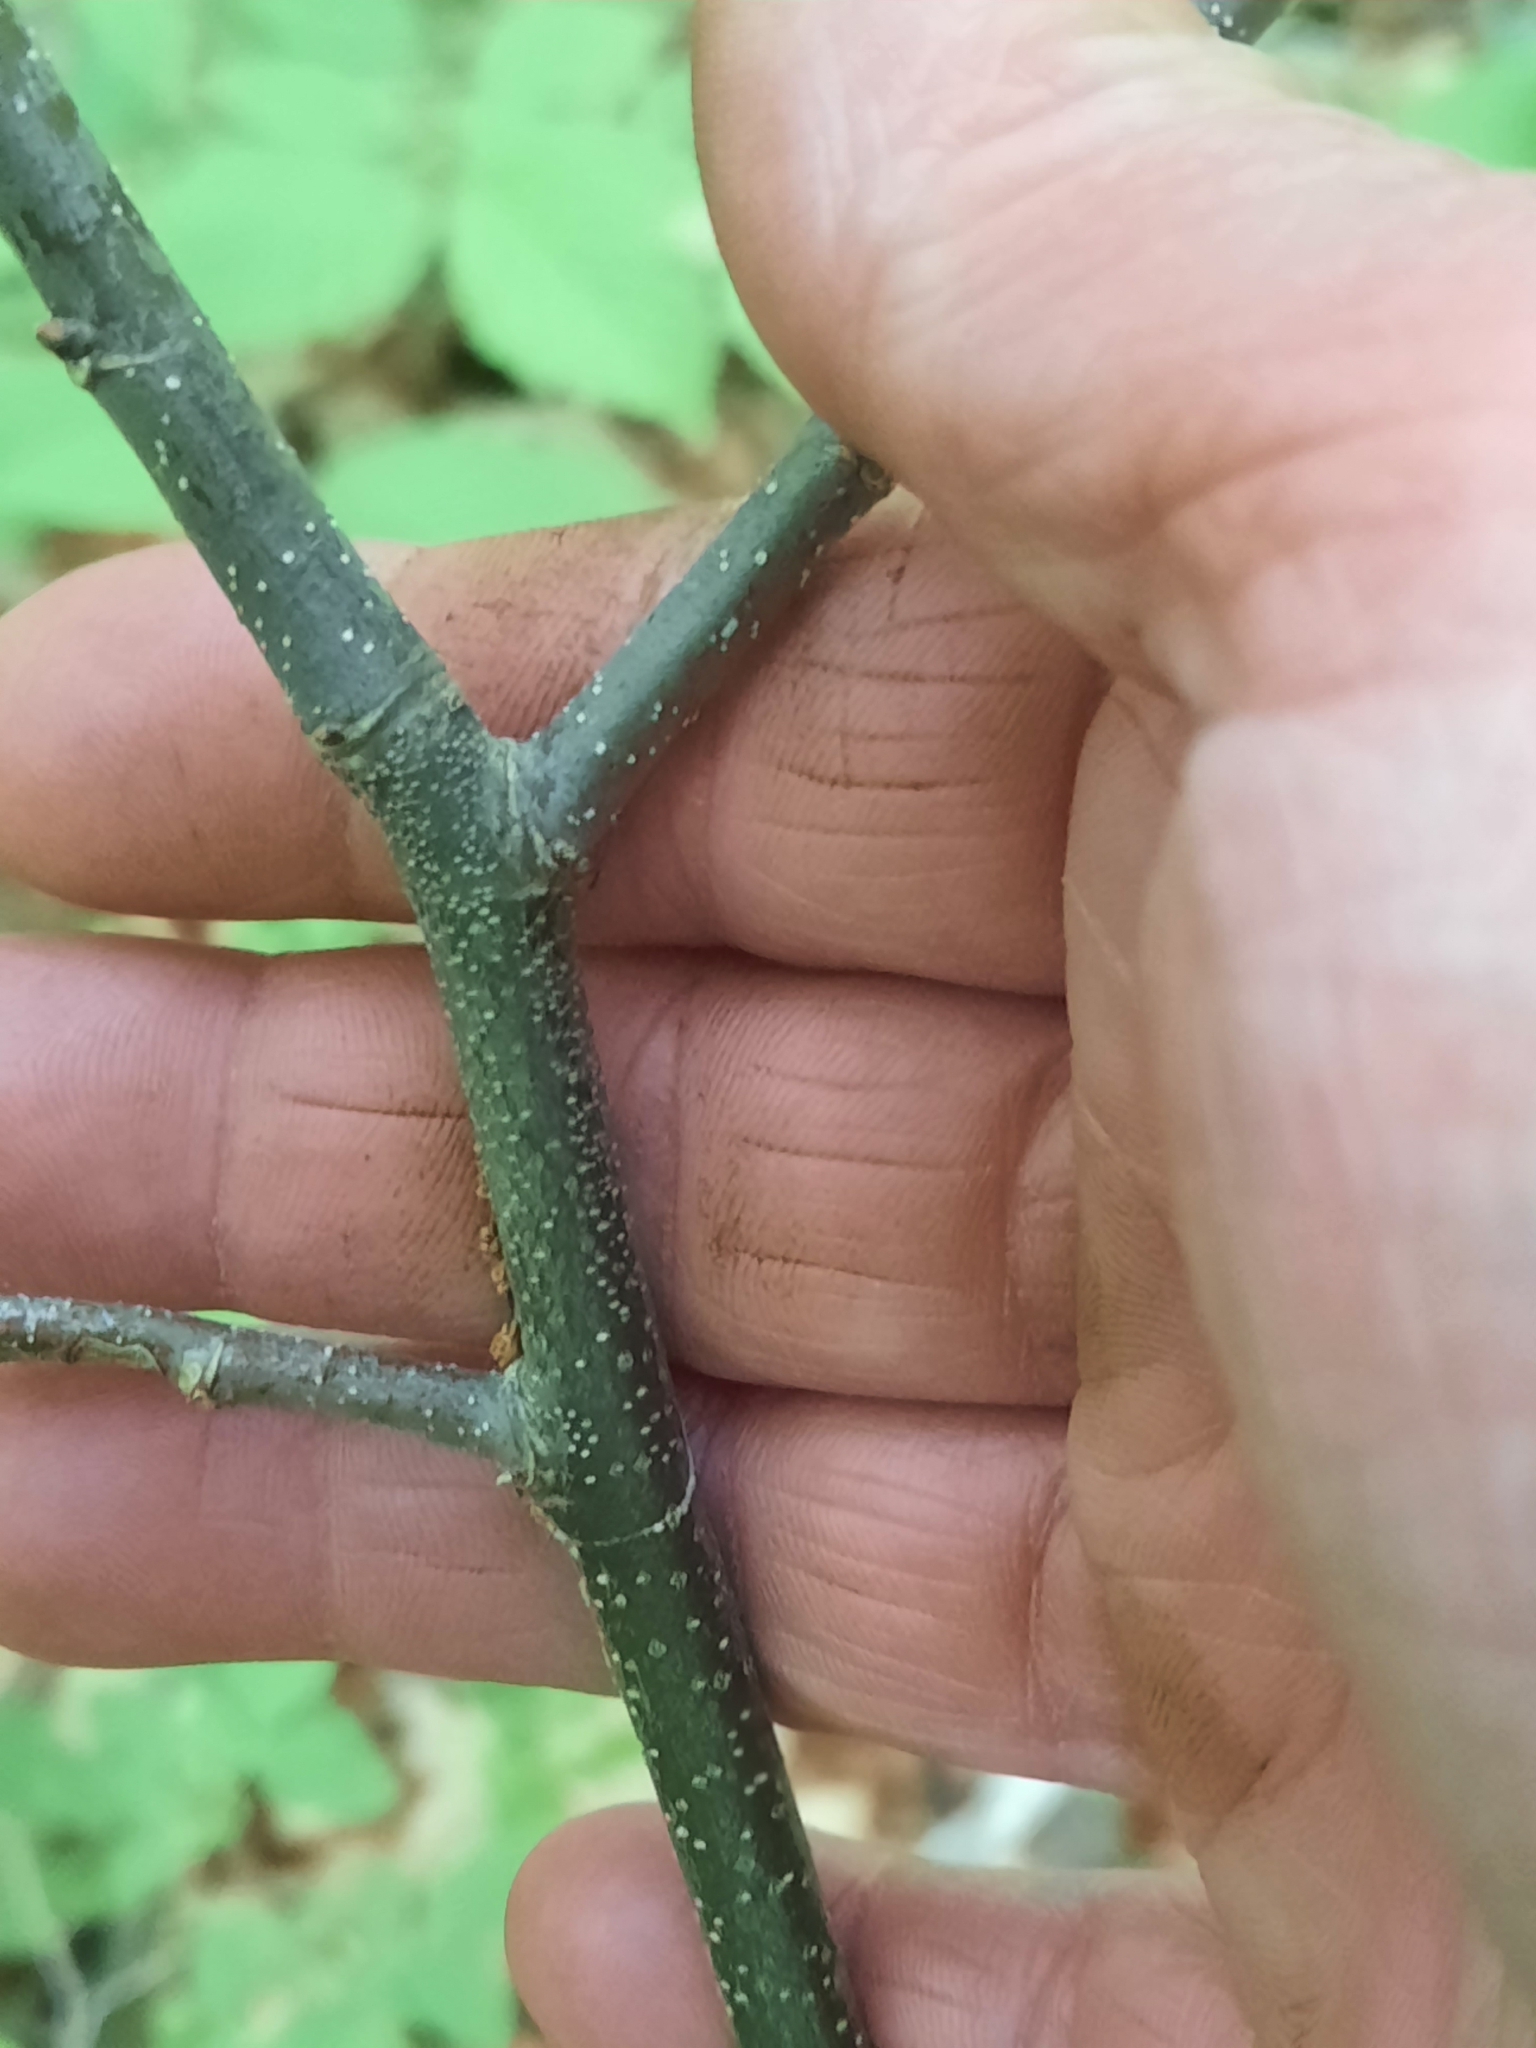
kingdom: Plantae
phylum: Tracheophyta
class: Magnoliopsida
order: Fagales
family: Fagaceae
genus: Castanea
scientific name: Castanea dentata
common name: American chestnut
